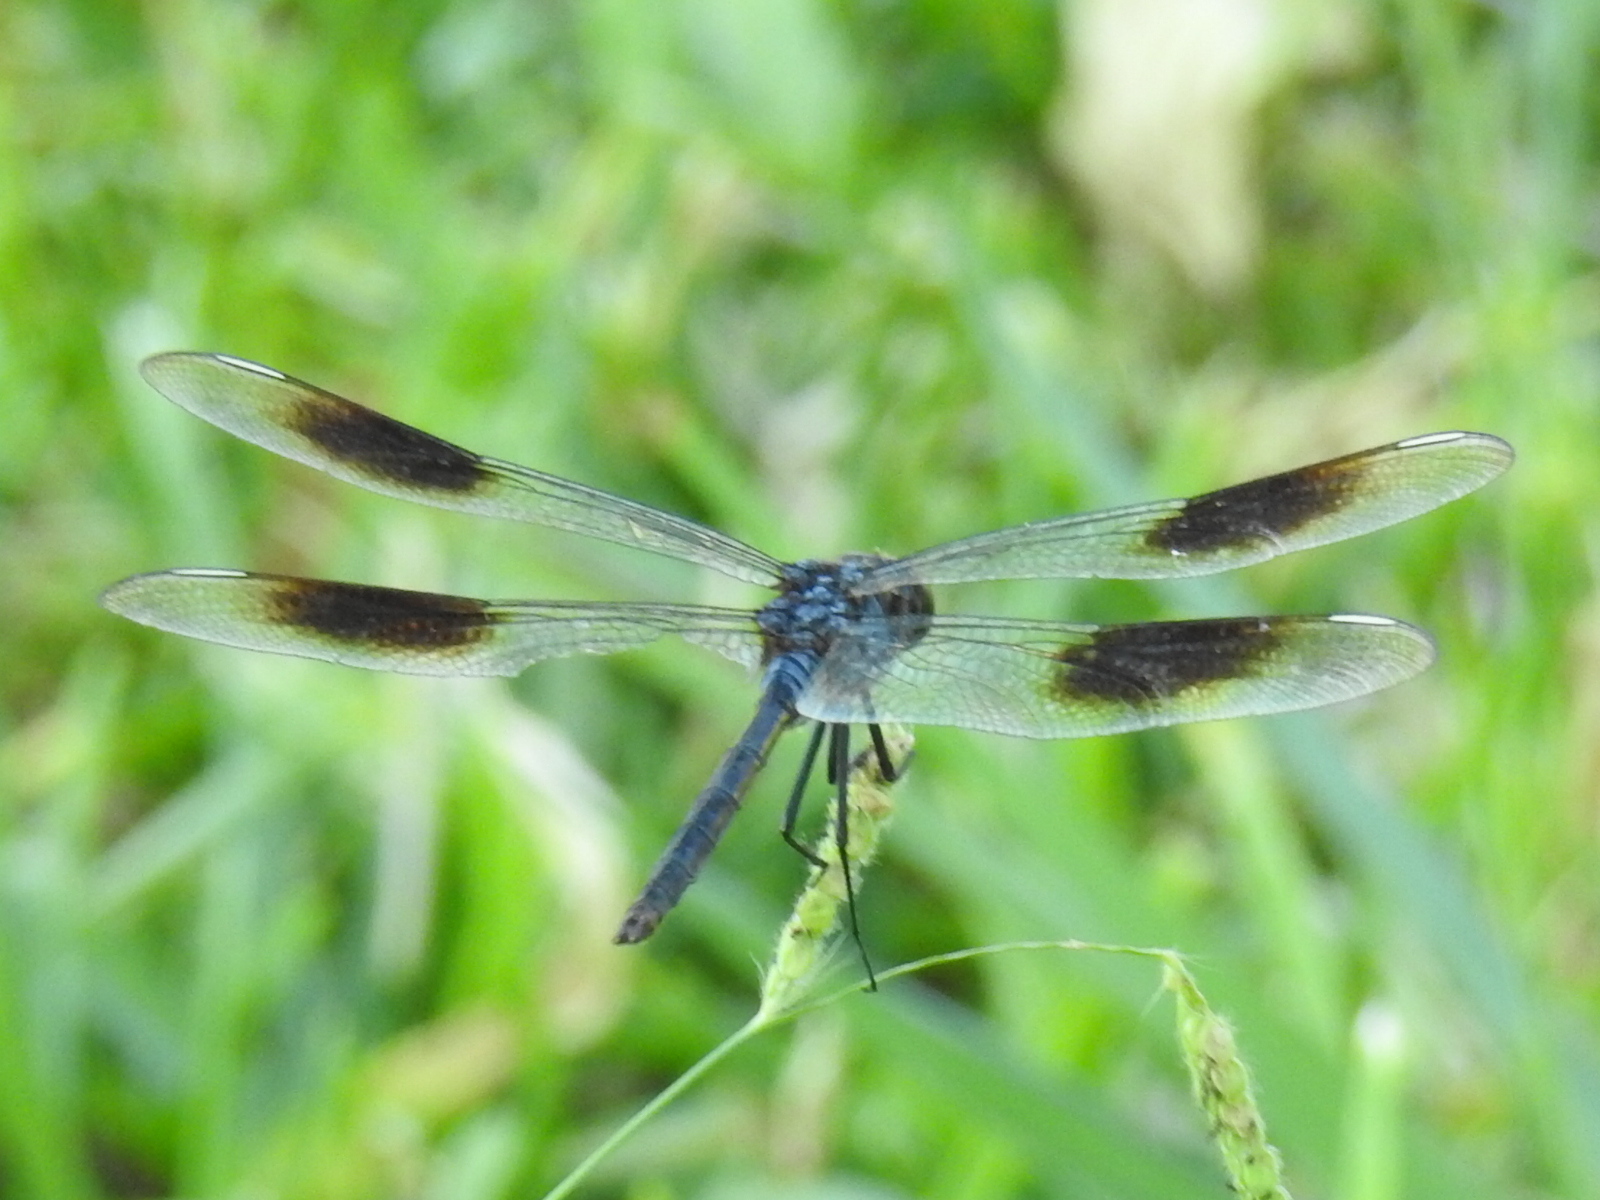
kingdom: Animalia
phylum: Arthropoda
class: Insecta
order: Odonata
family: Libellulidae
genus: Brachymesia
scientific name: Brachymesia gravida
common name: Four-spotted pennant
